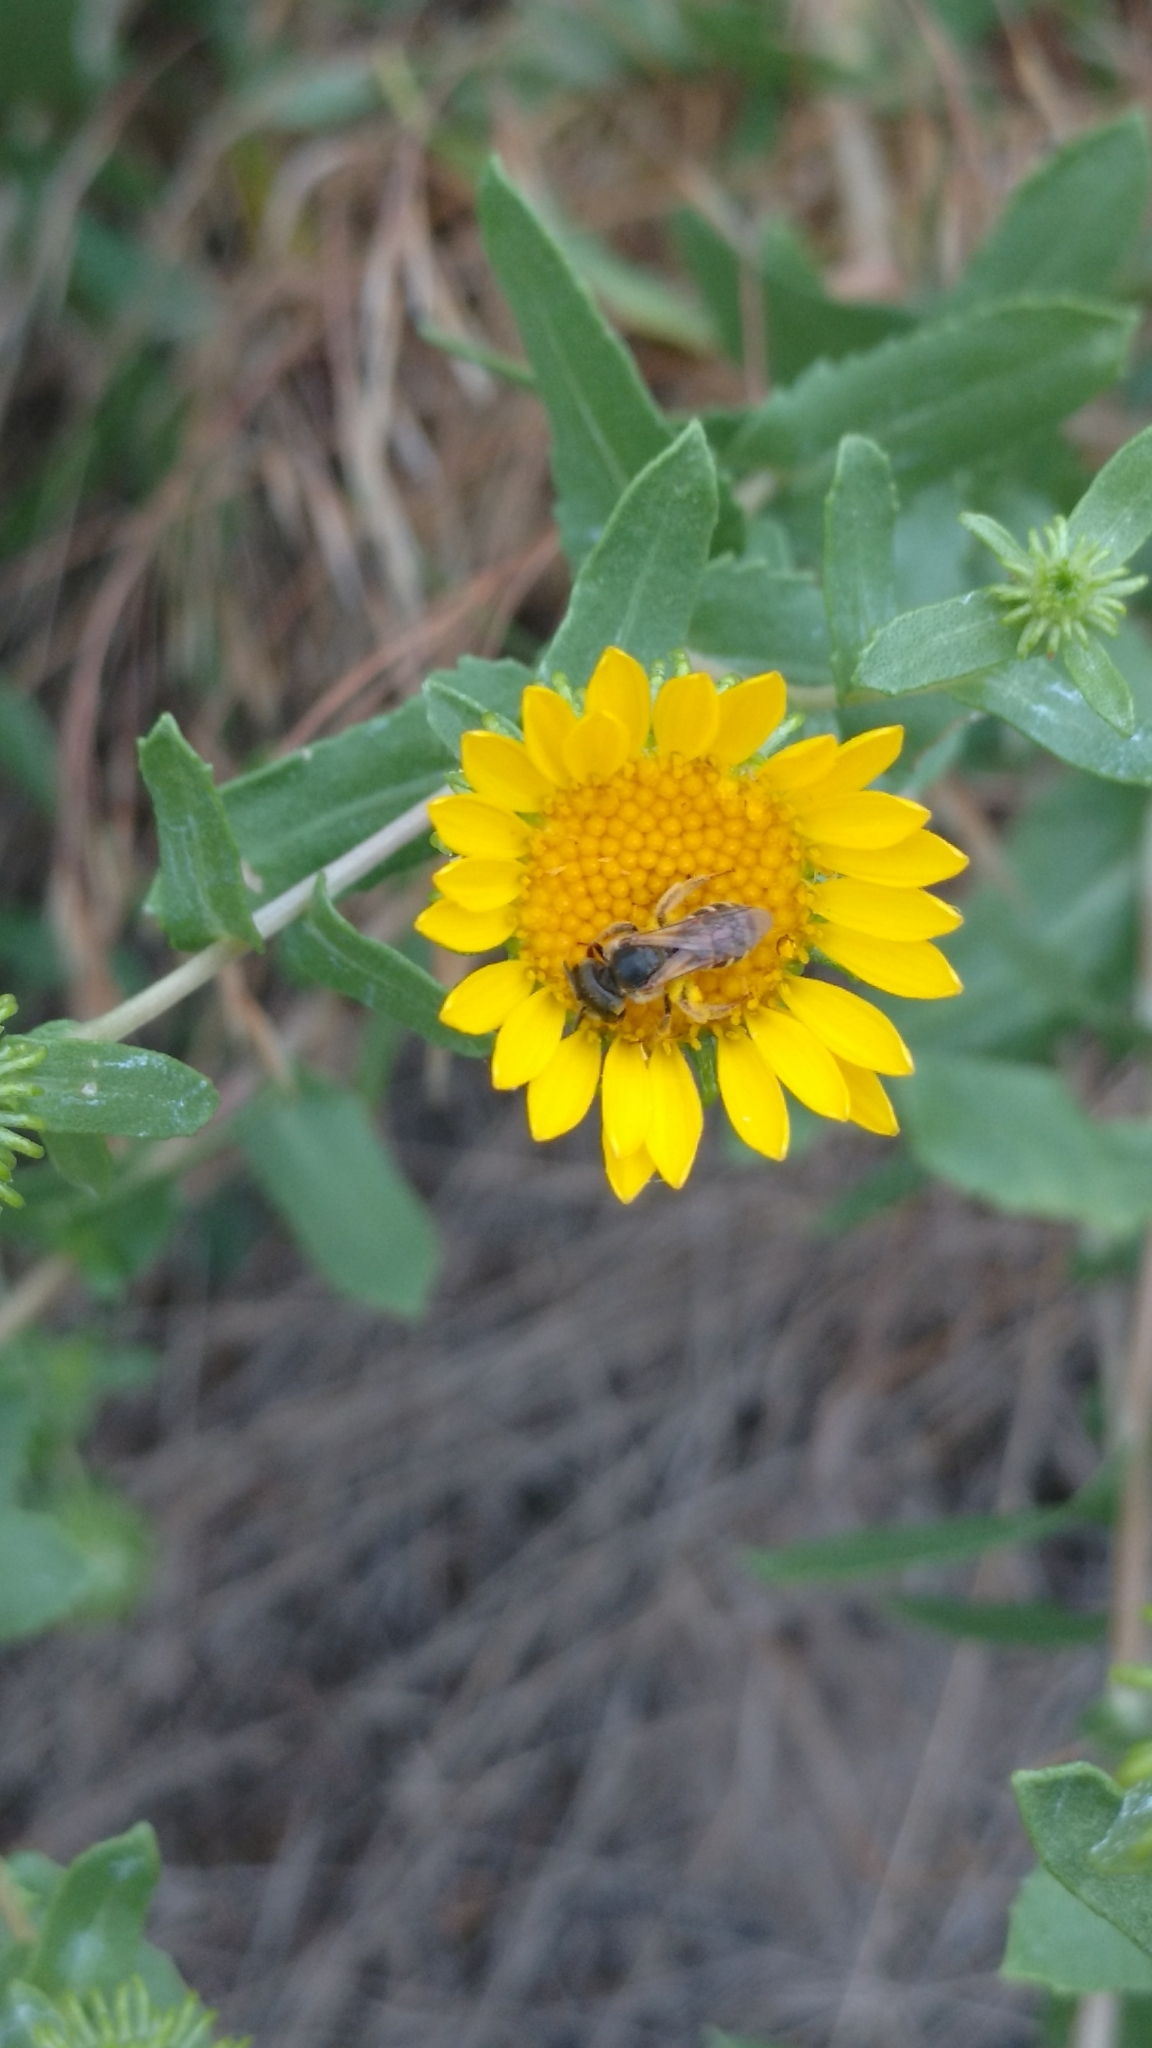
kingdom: Plantae
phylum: Tracheophyta
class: Magnoliopsida
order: Asterales
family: Asteraceae
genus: Grindelia
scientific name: Grindelia squarrosa
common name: Curly-cup gumweed
